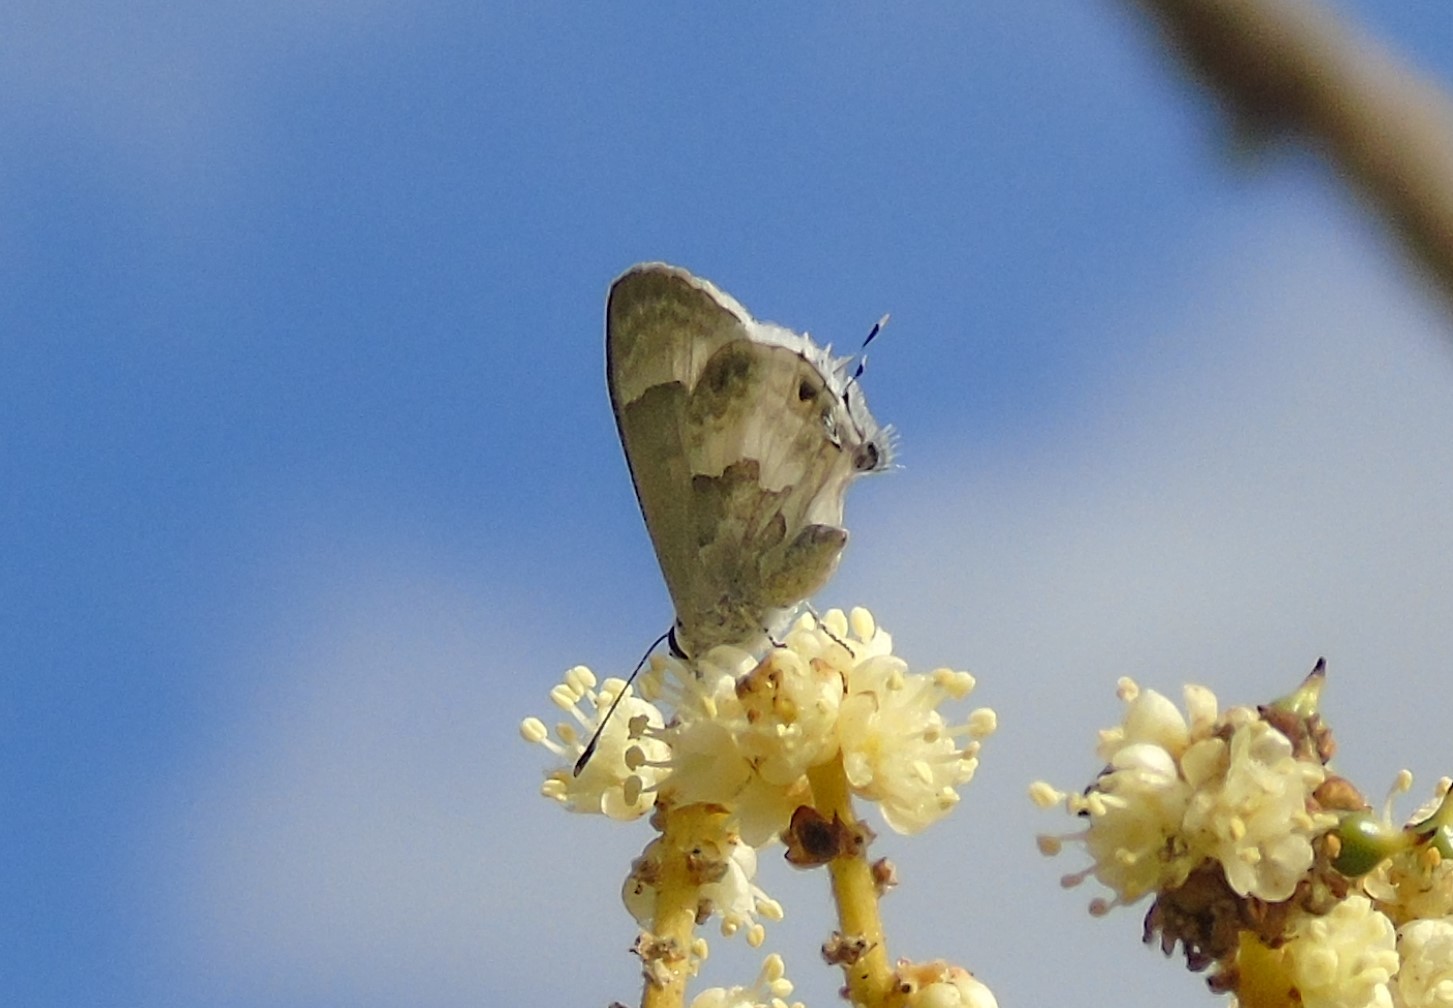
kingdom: Animalia
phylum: Arthropoda
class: Insecta
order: Lepidoptera
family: Lycaenidae
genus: Strymon
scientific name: Strymon albata
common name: White scrub-hairstreak
